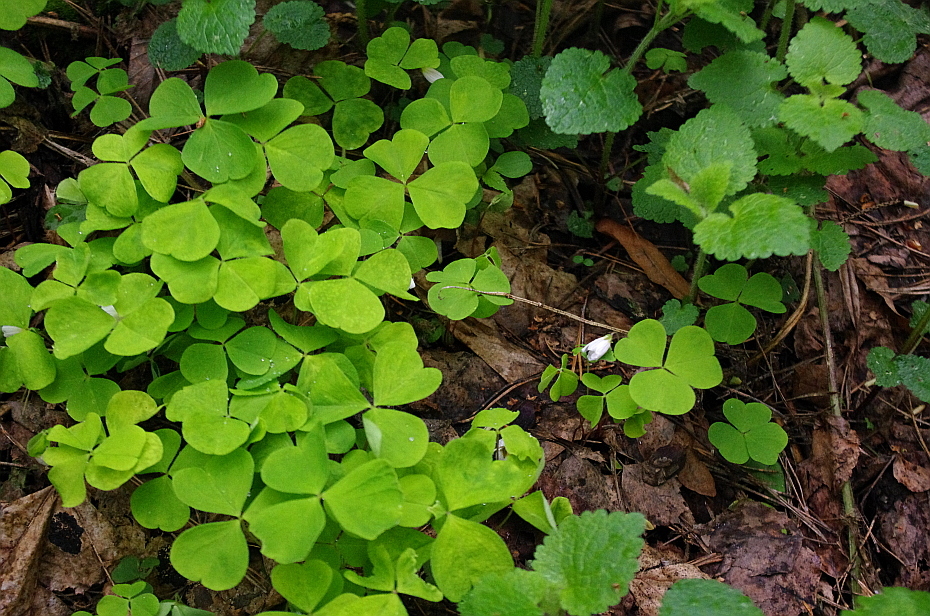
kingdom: Plantae
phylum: Tracheophyta
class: Magnoliopsida
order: Oxalidales
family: Oxalidaceae
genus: Oxalis
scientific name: Oxalis acetosella
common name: Wood-sorrel
